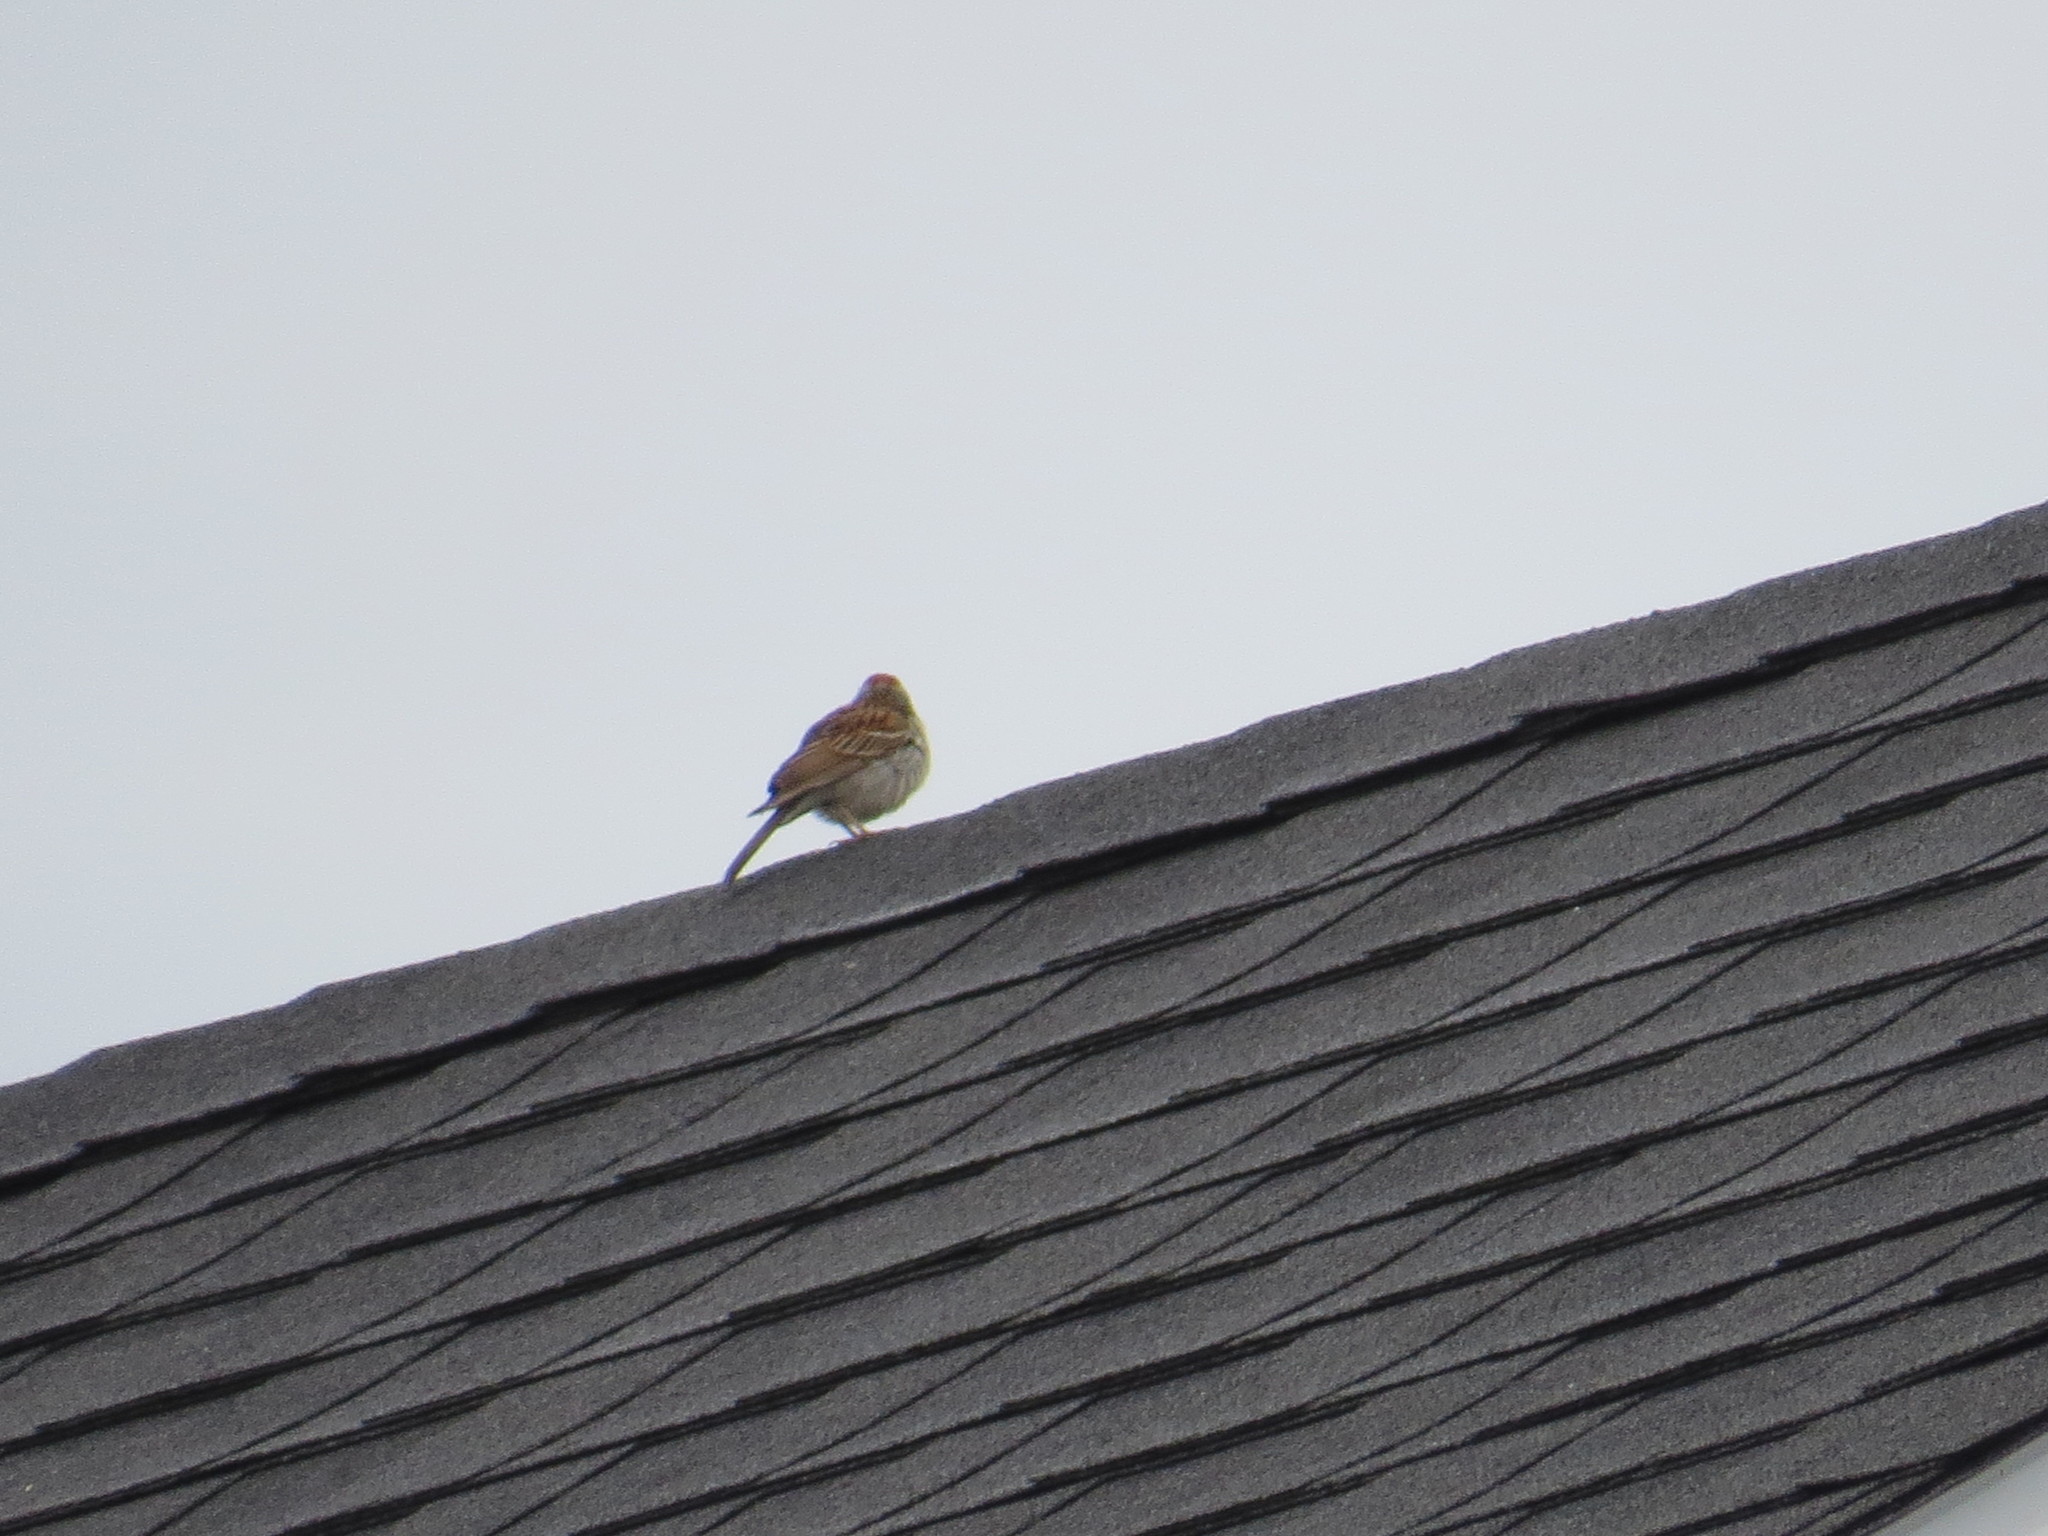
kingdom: Animalia
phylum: Chordata
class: Aves
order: Passeriformes
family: Passerellidae
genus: Spizella
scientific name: Spizella passerina
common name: Chipping sparrow
